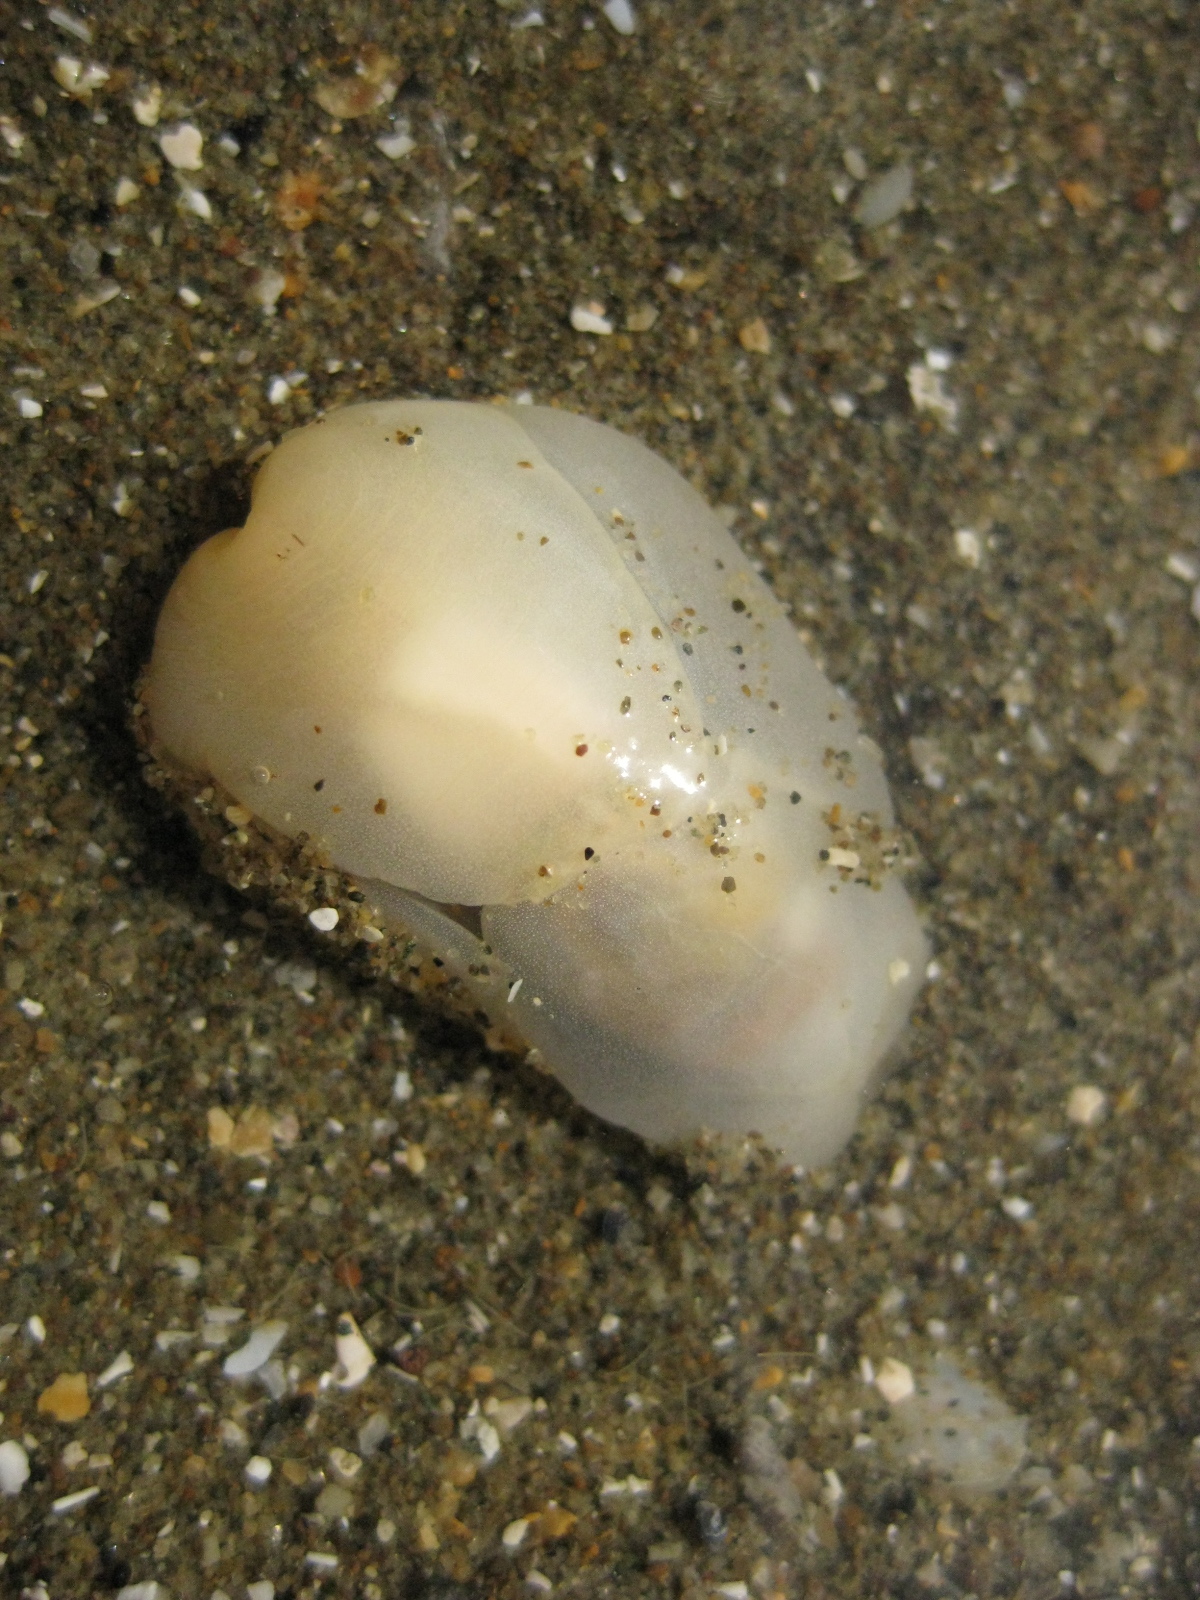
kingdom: Animalia
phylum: Mollusca
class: Gastropoda
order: Cephalaspidea
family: Philinidae
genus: Philine
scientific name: Philine
